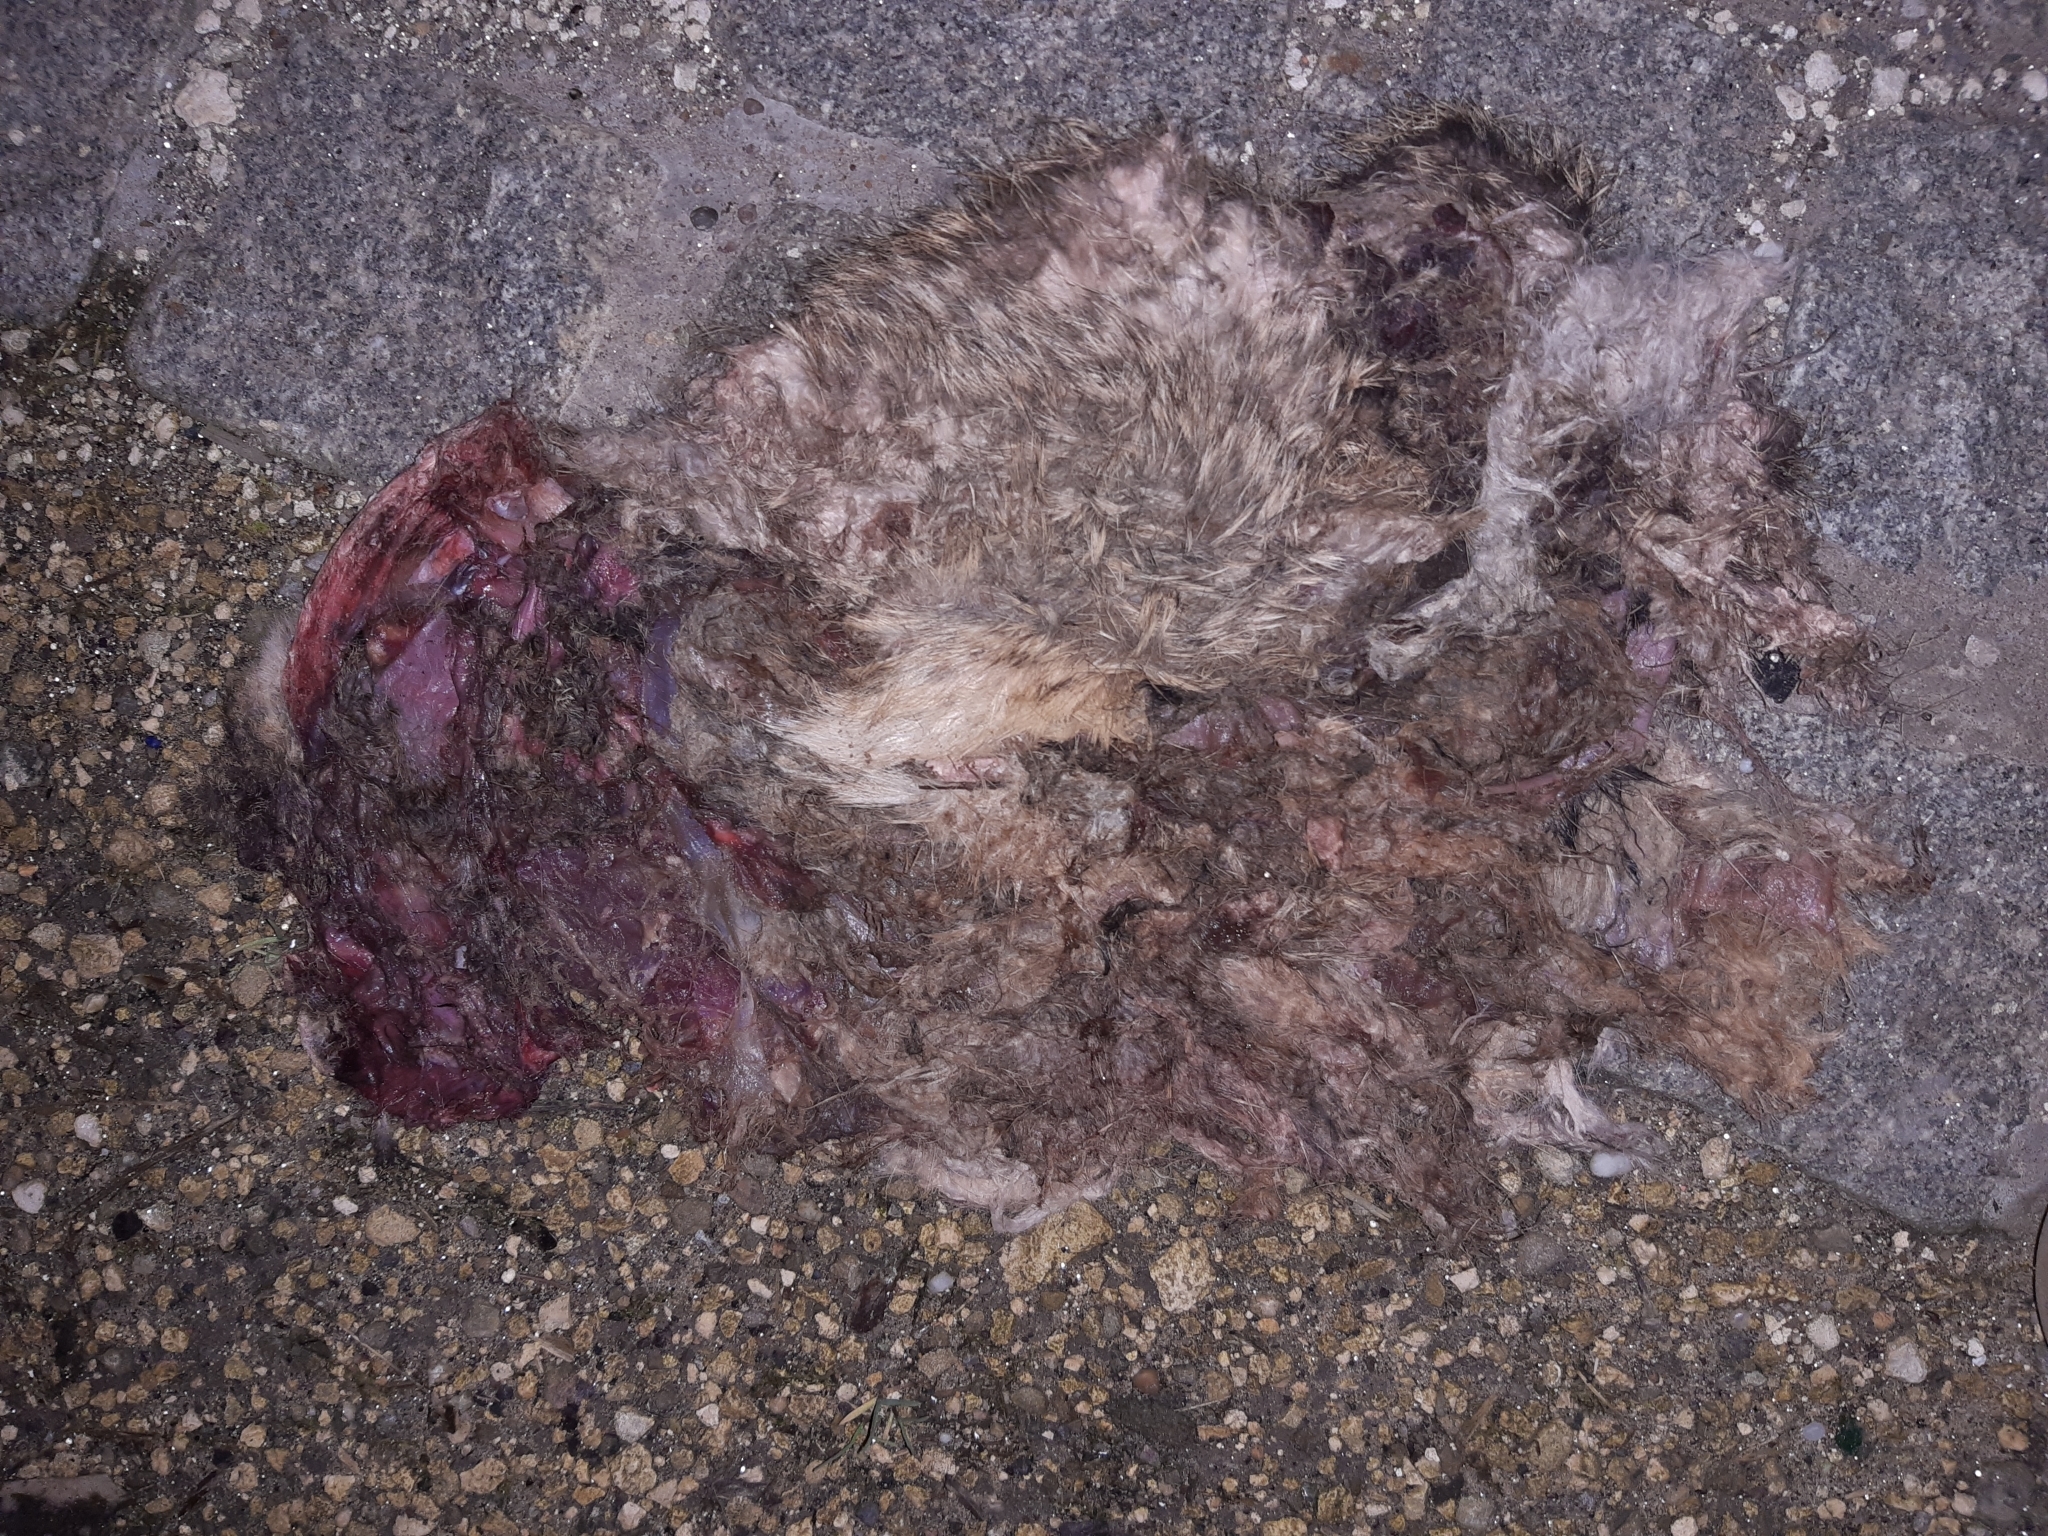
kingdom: Animalia
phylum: Chordata
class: Mammalia
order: Lagomorpha
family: Leporidae
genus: Lepus
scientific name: Lepus europaeus
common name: European hare
